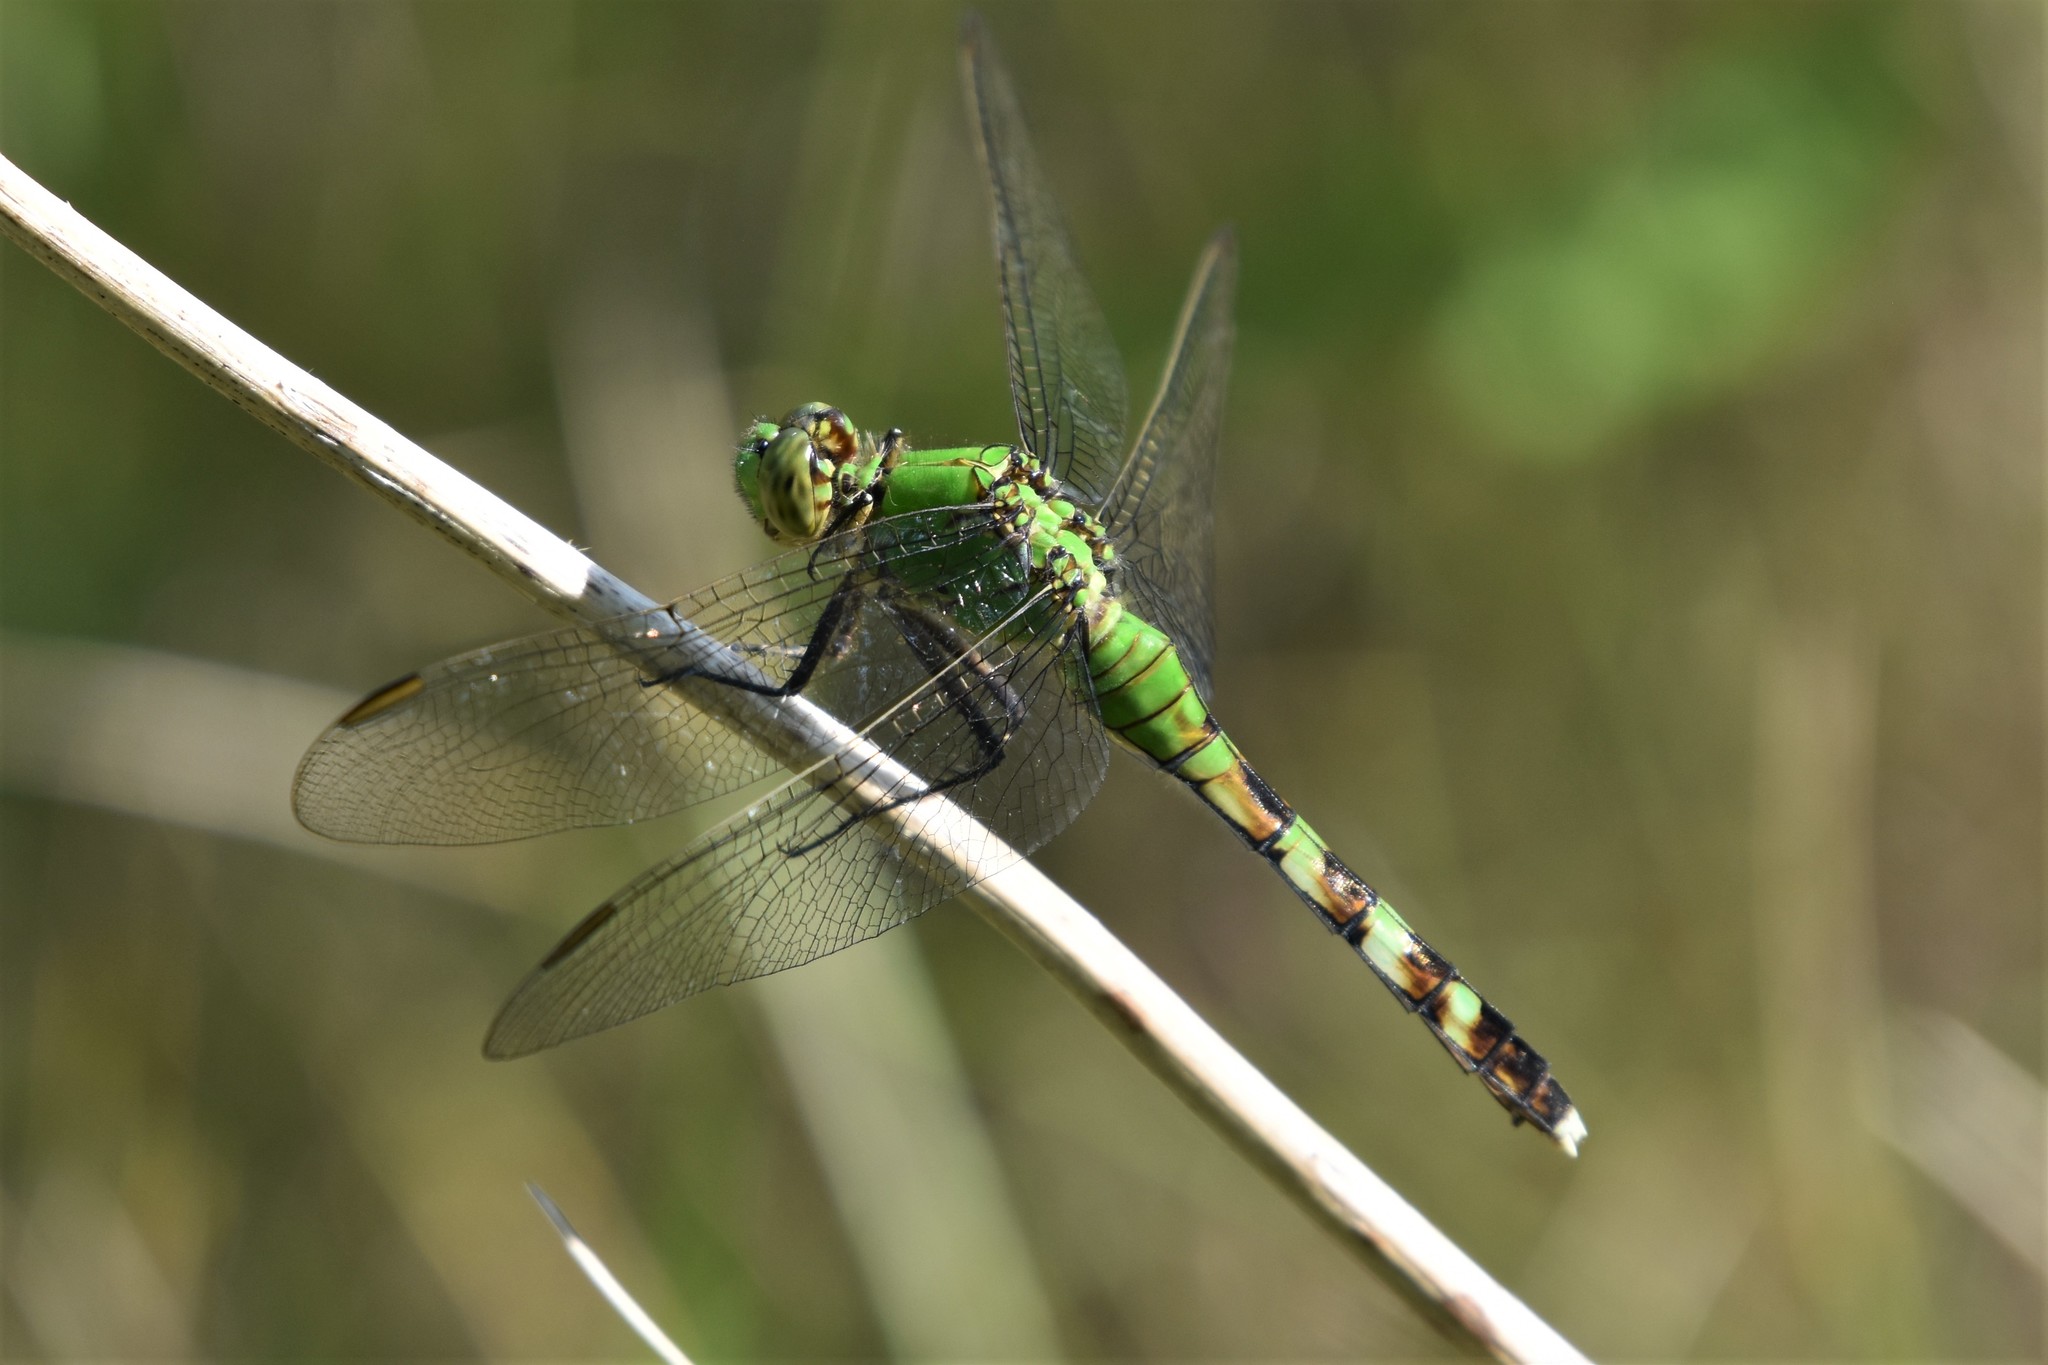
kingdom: Animalia
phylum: Arthropoda
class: Insecta
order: Odonata
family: Libellulidae
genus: Erythemis
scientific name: Erythemis simplicicollis
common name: Eastern pondhawk
